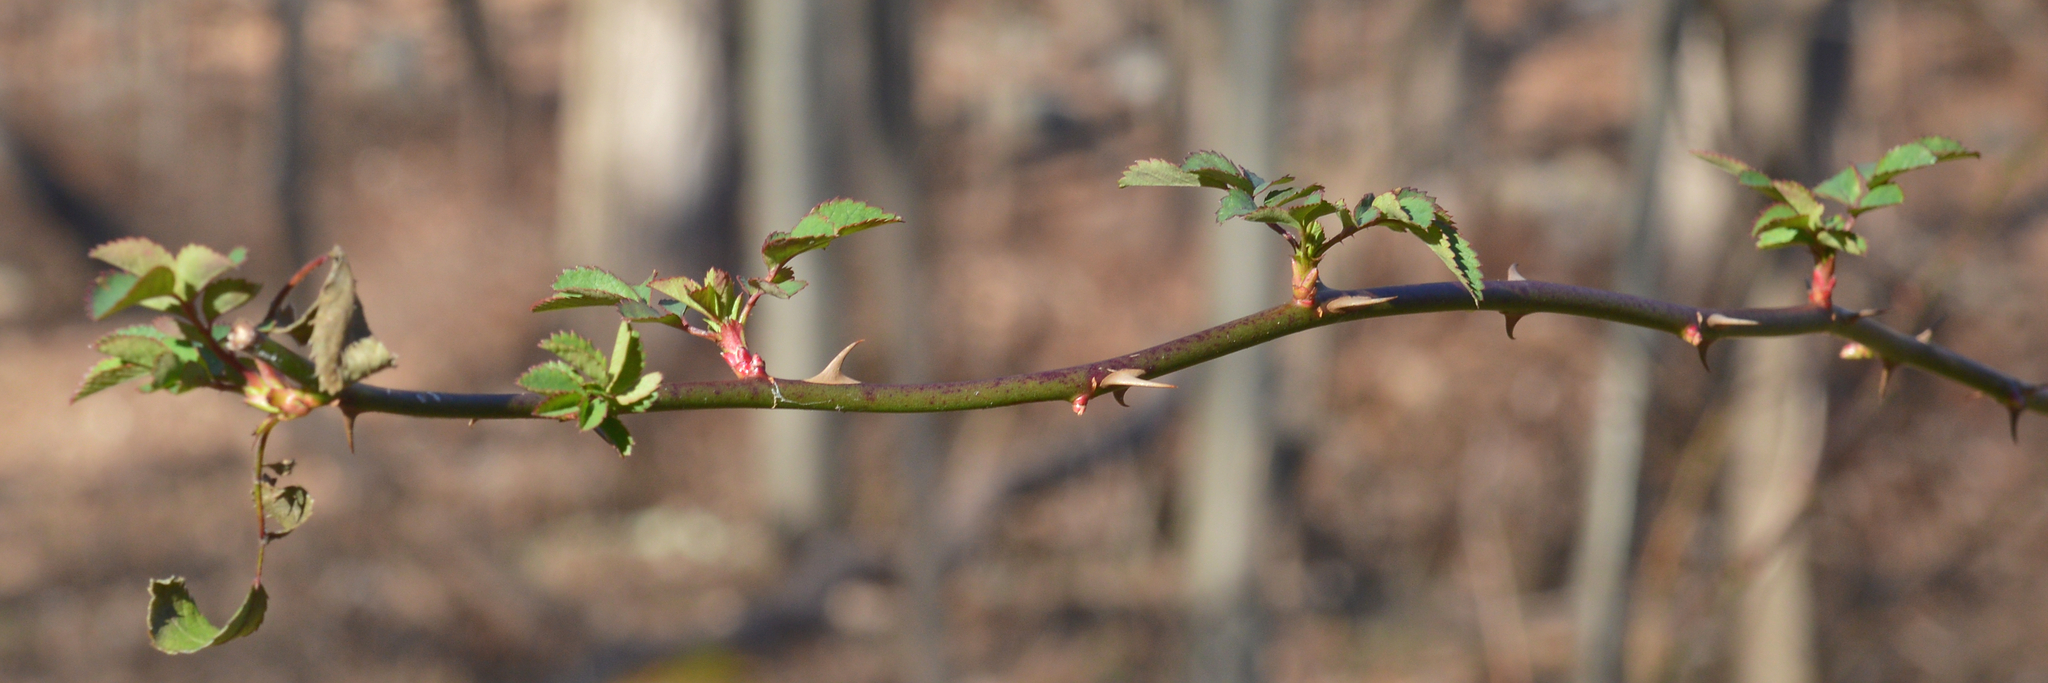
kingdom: Plantae
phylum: Tracheophyta
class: Magnoliopsida
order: Rosales
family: Rosaceae
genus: Rosa
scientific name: Rosa multiflora
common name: Multiflora rose
